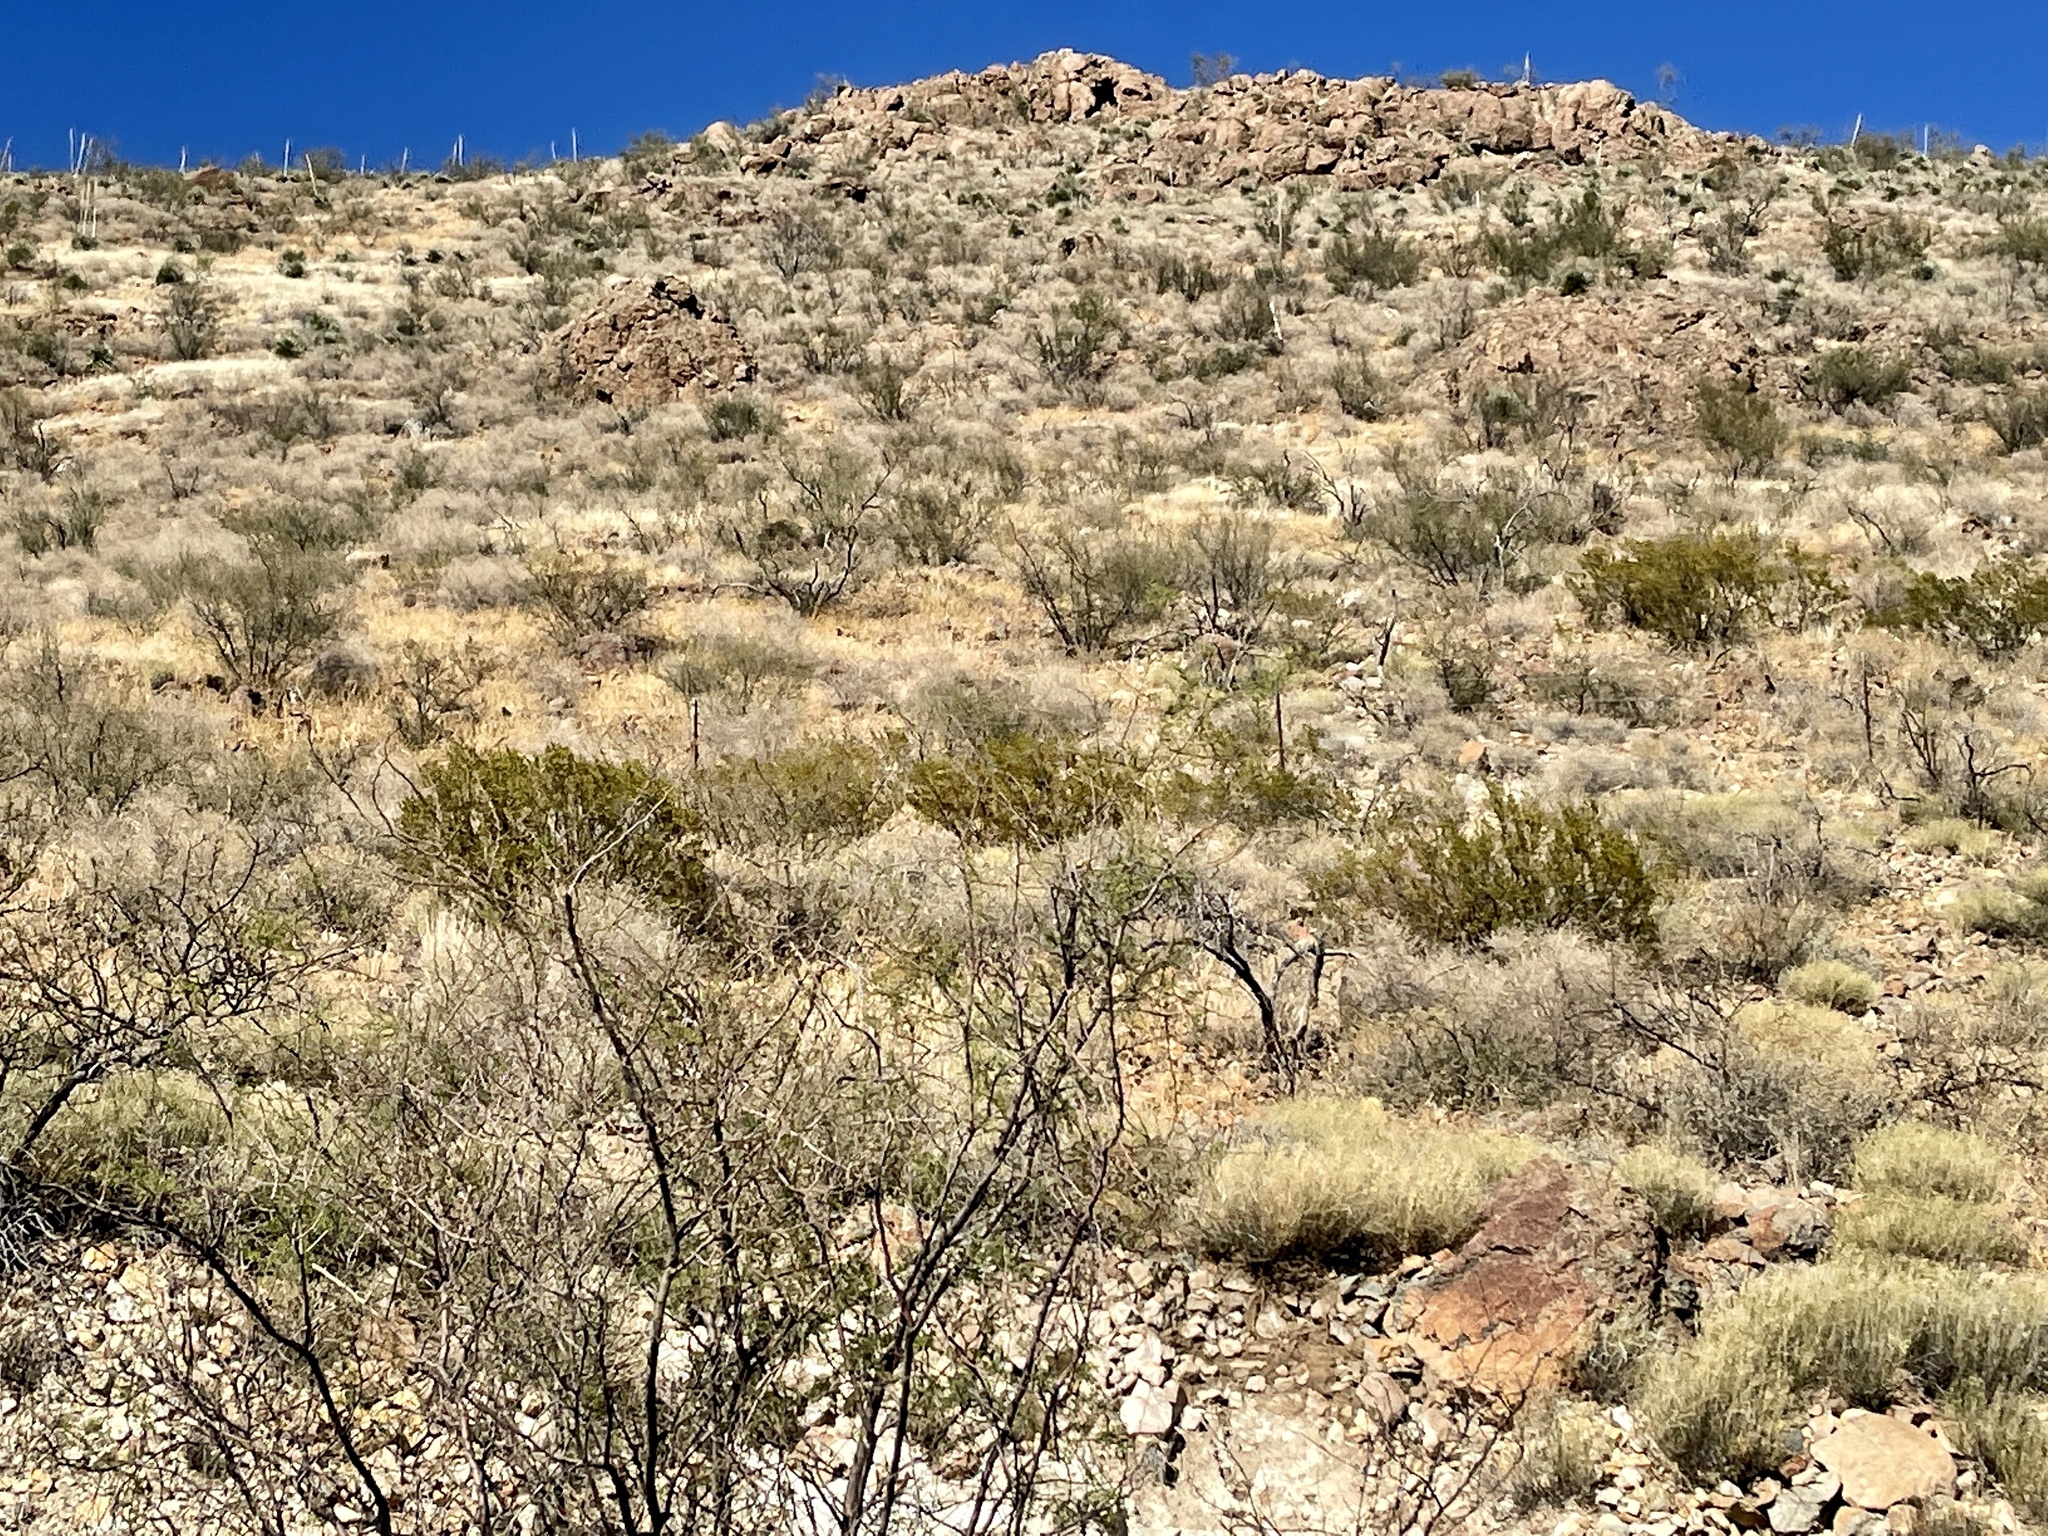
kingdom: Plantae
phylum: Tracheophyta
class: Magnoliopsida
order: Zygophyllales
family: Zygophyllaceae
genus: Larrea
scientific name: Larrea tridentata
